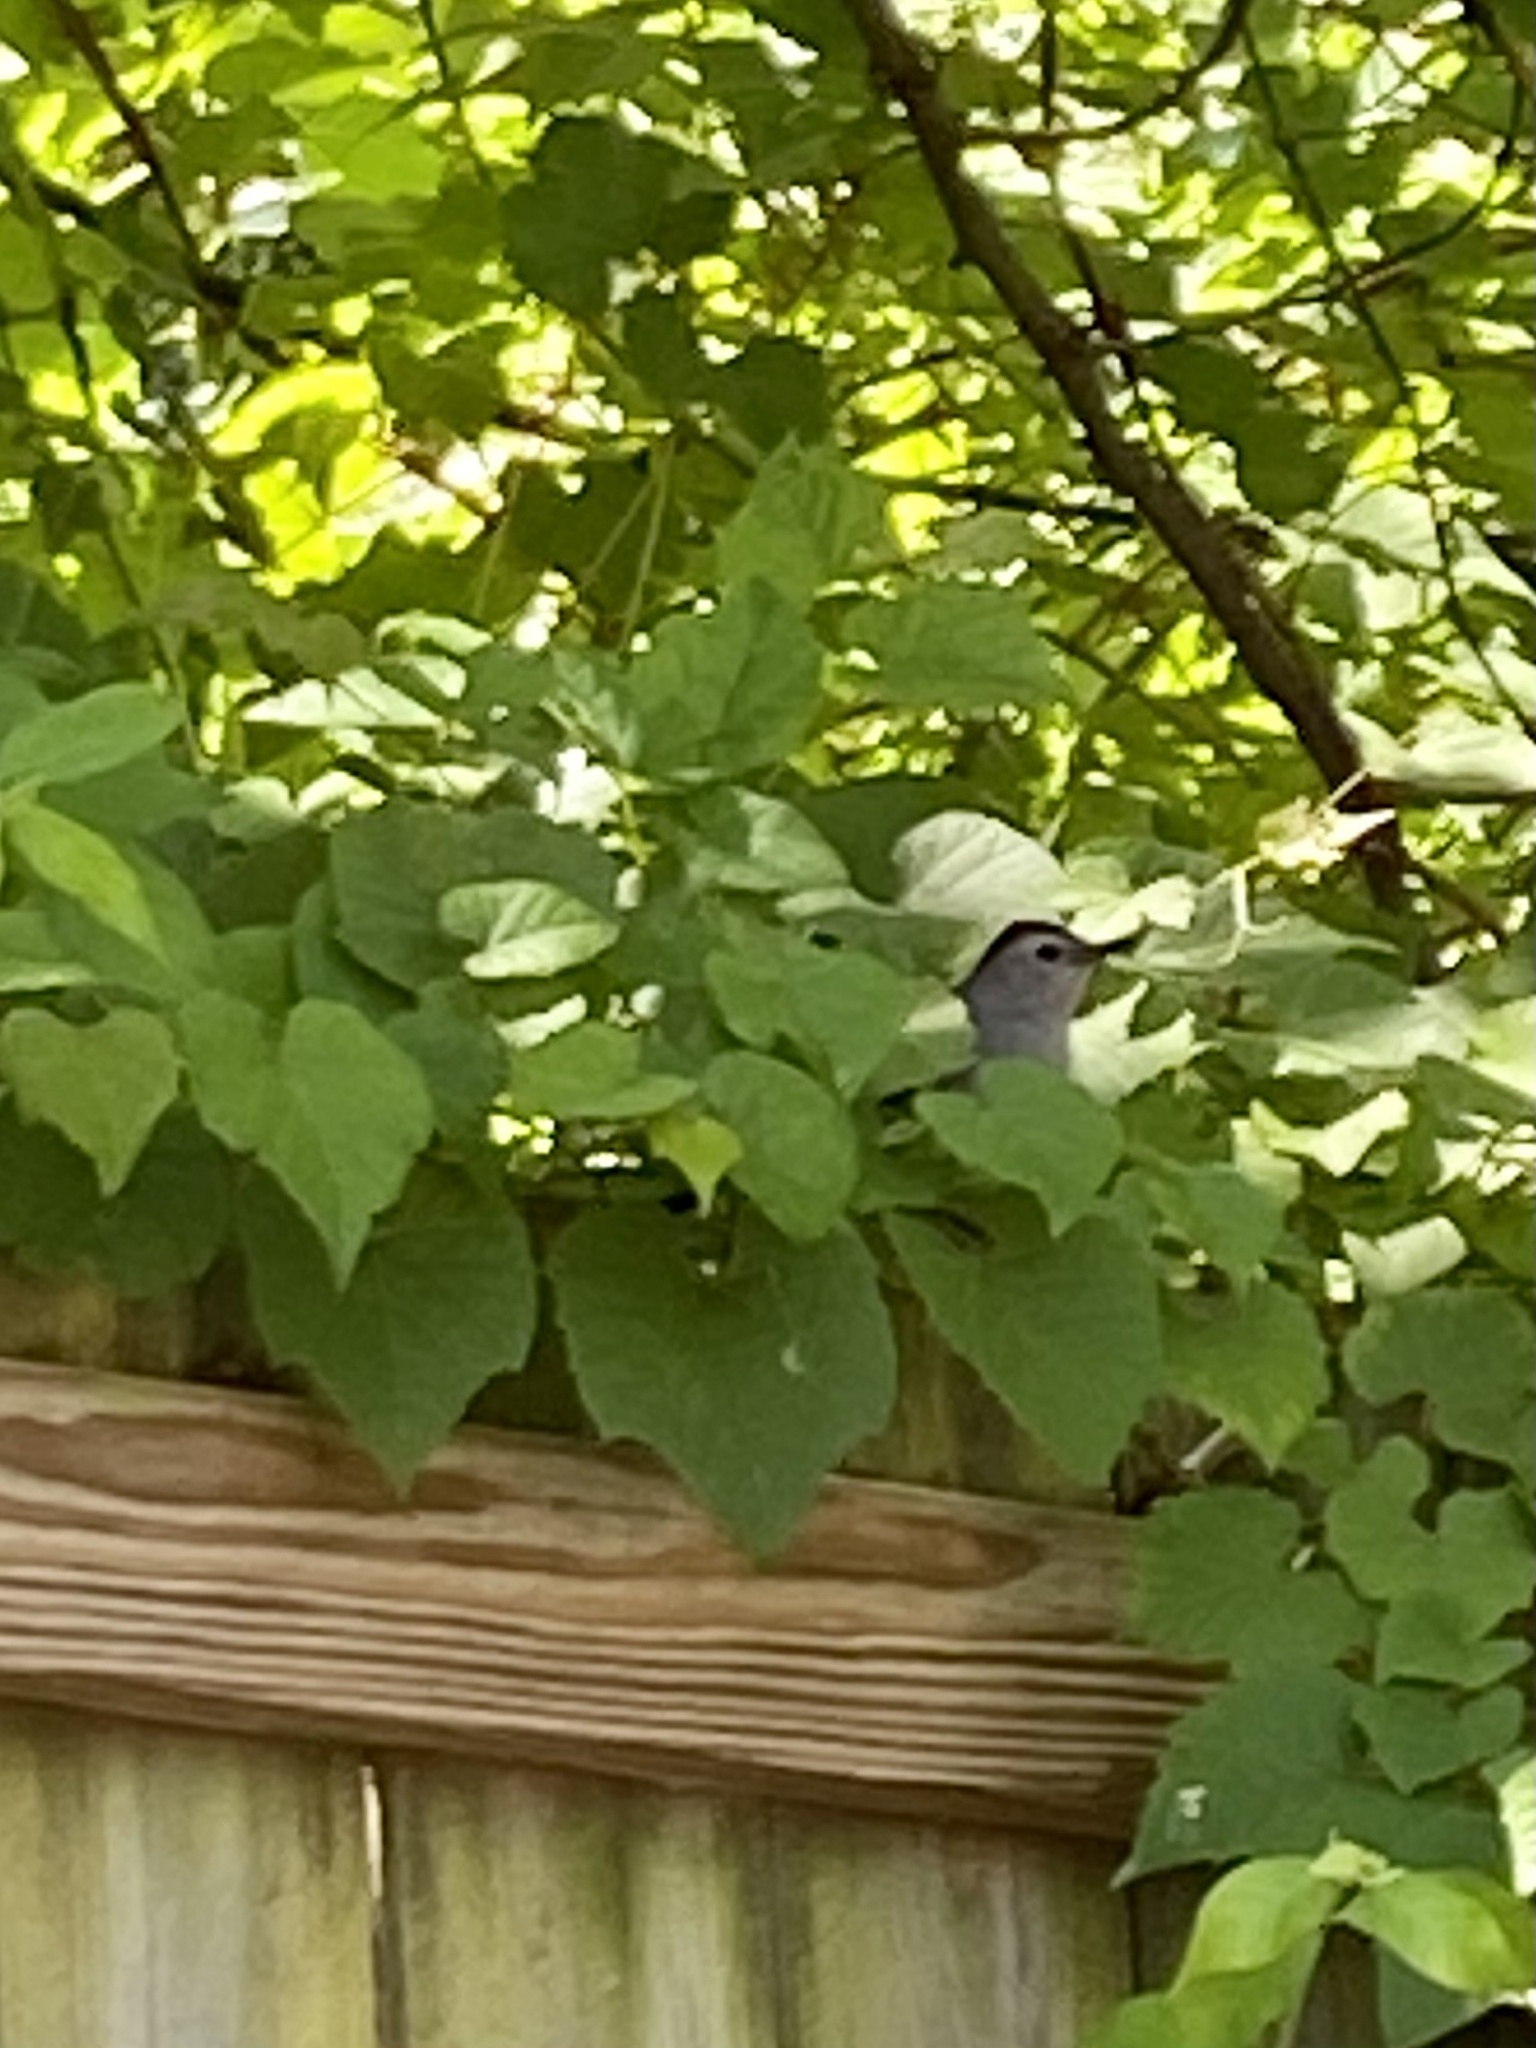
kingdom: Animalia
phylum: Chordata
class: Aves
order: Passeriformes
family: Mimidae
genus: Dumetella
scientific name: Dumetella carolinensis
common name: Gray catbird
